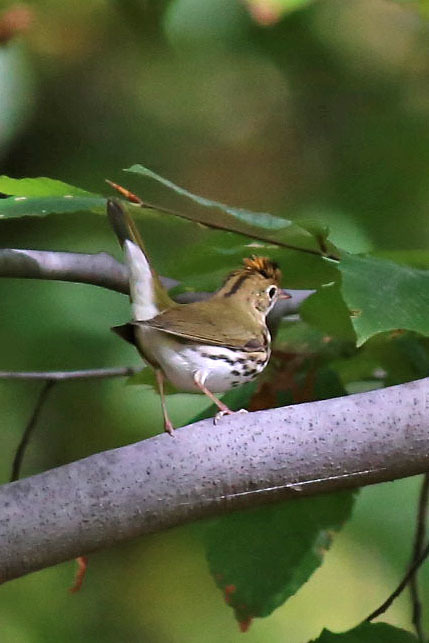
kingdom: Animalia
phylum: Chordata
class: Aves
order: Passeriformes
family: Parulidae
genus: Seiurus
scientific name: Seiurus aurocapilla
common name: Ovenbird
